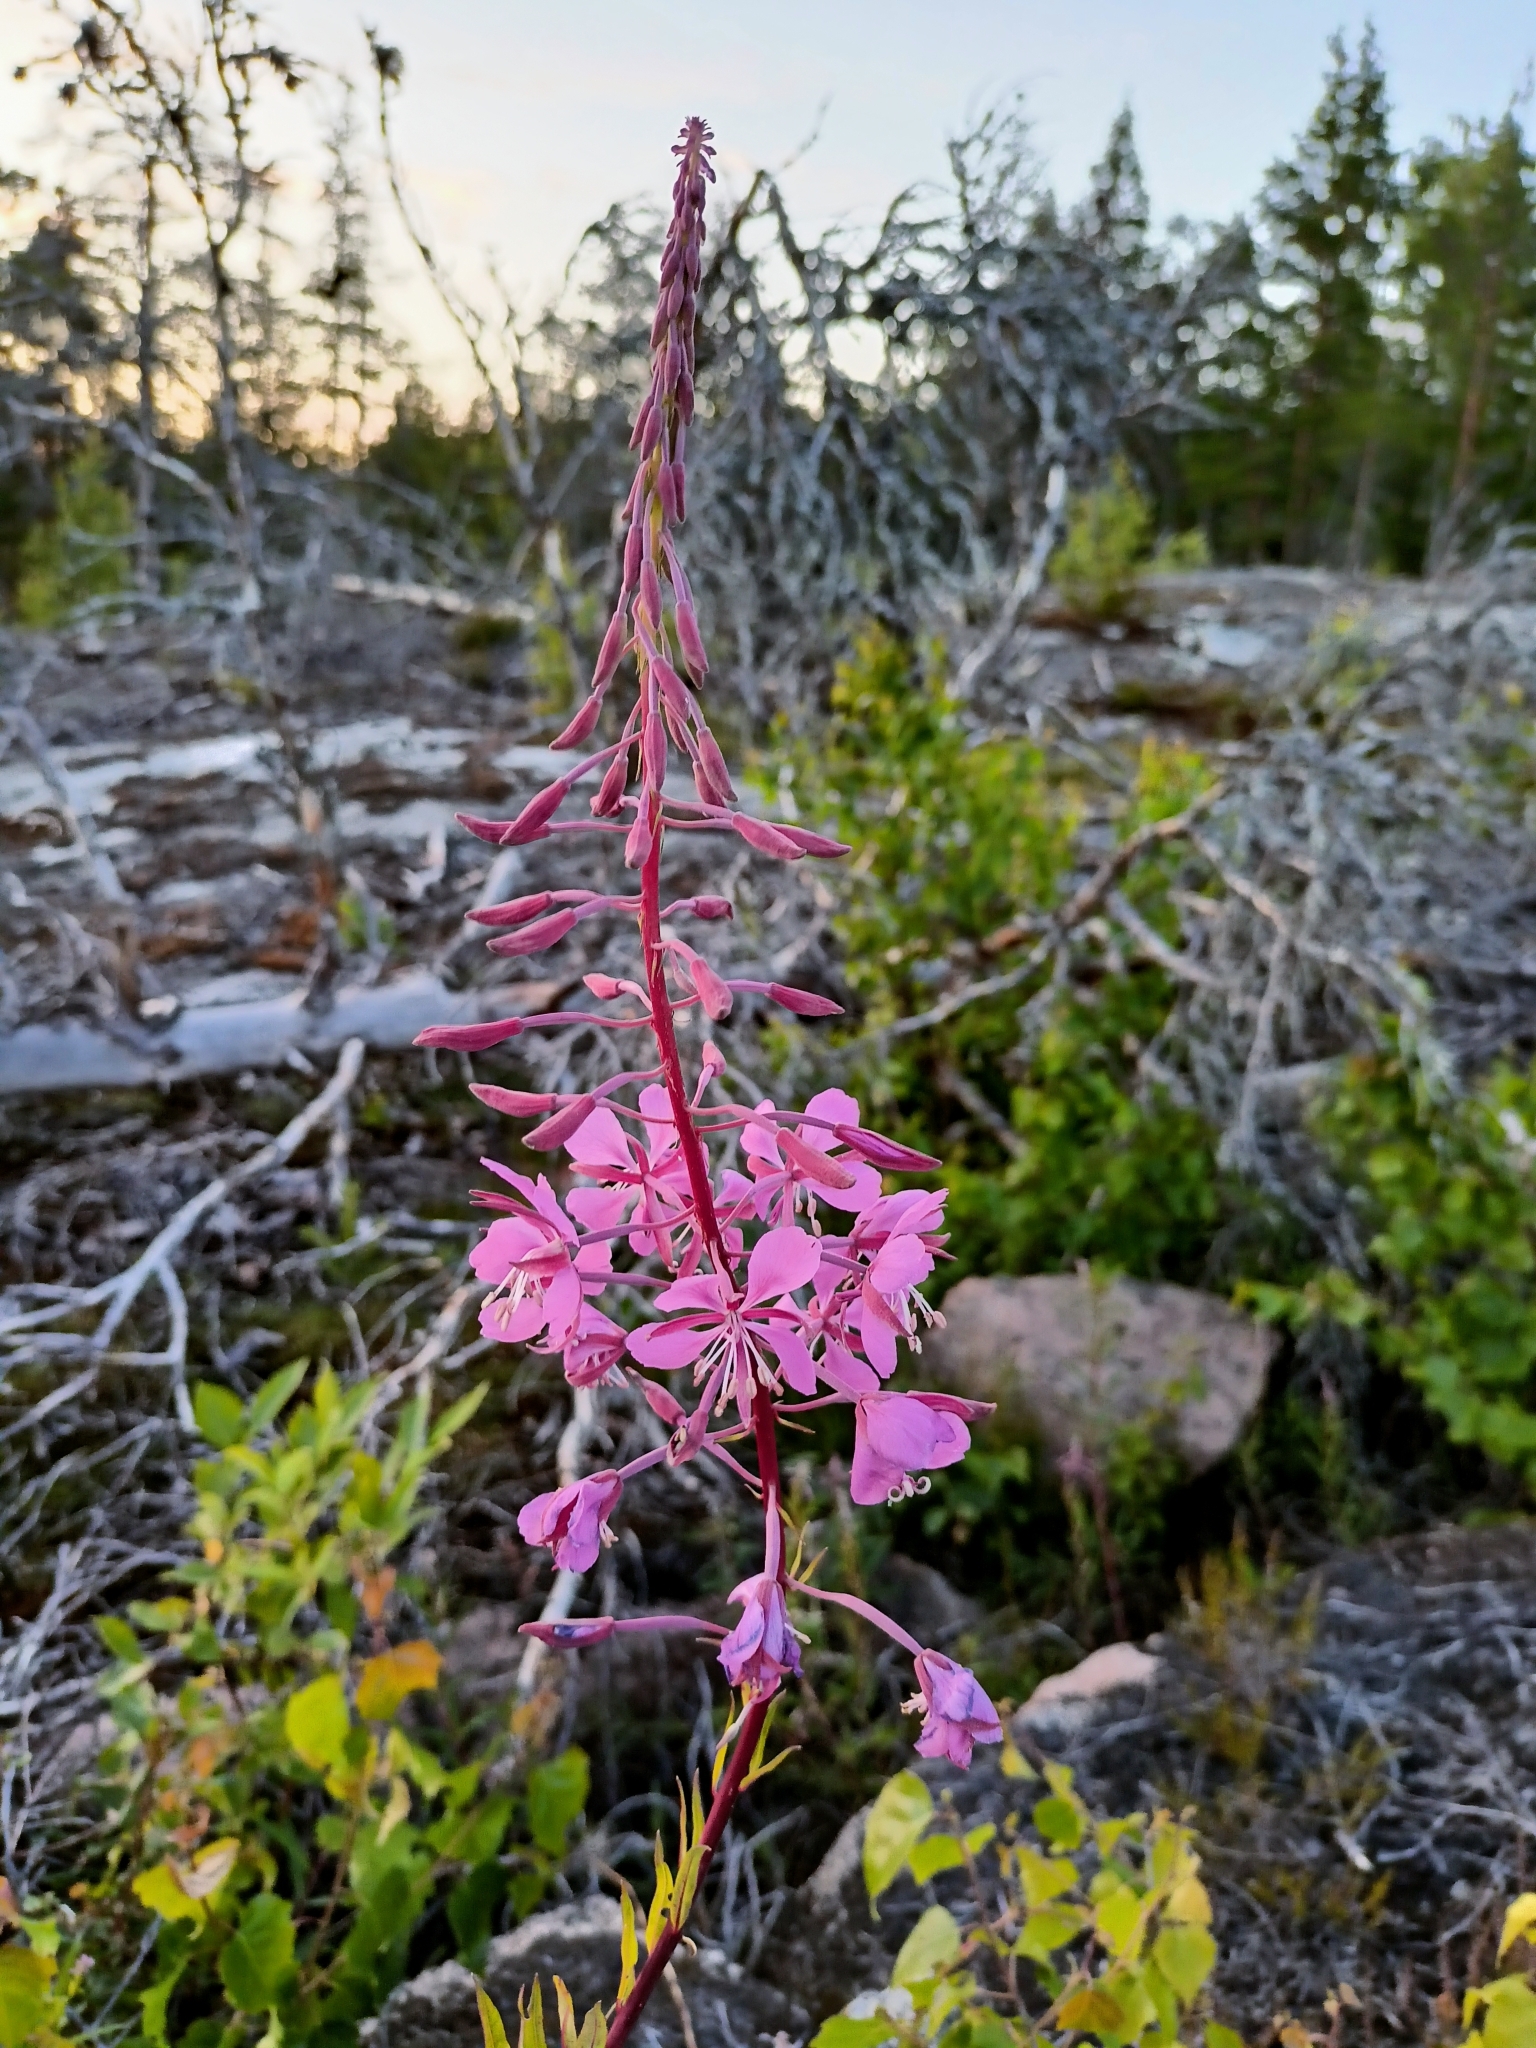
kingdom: Plantae
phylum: Tracheophyta
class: Magnoliopsida
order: Myrtales
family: Onagraceae
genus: Chamaenerion
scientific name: Chamaenerion angustifolium
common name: Fireweed
